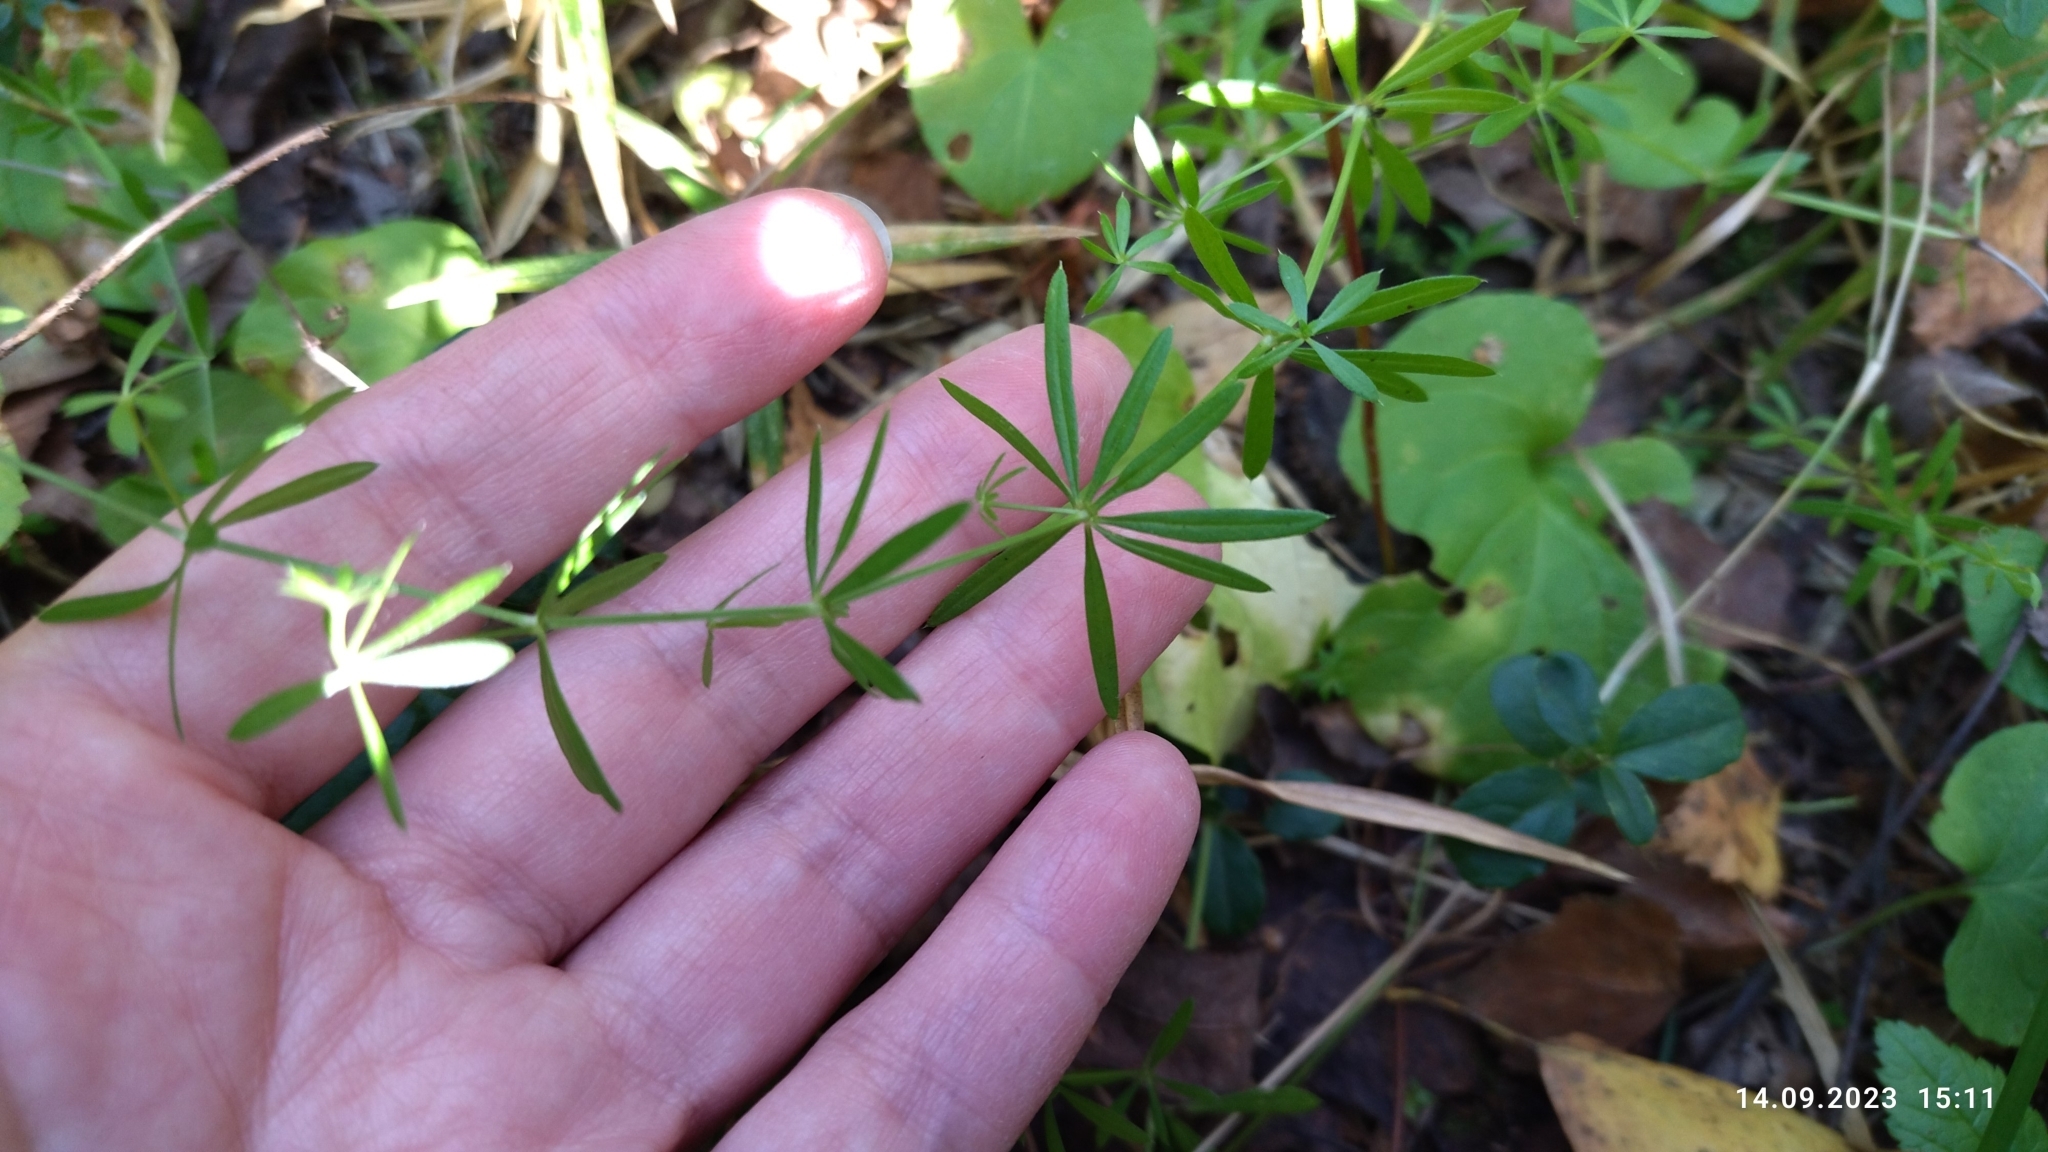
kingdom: Plantae
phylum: Tracheophyta
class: Magnoliopsida
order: Gentianales
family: Rubiaceae
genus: Galium
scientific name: Galium mollugo
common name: Hedge bedstraw
